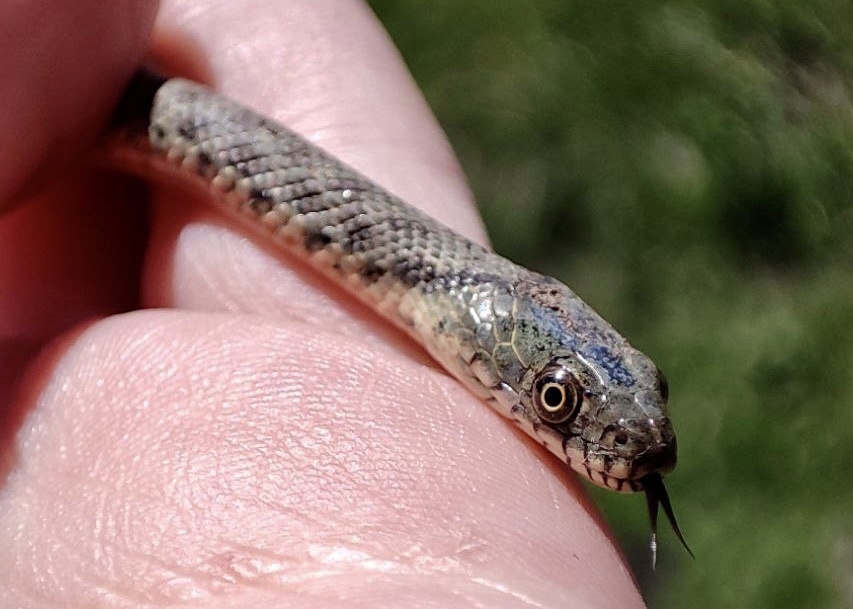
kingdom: Animalia
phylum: Chordata
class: Squamata
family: Colubridae
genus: Natrix
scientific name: Natrix tessellata
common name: Dice snake
